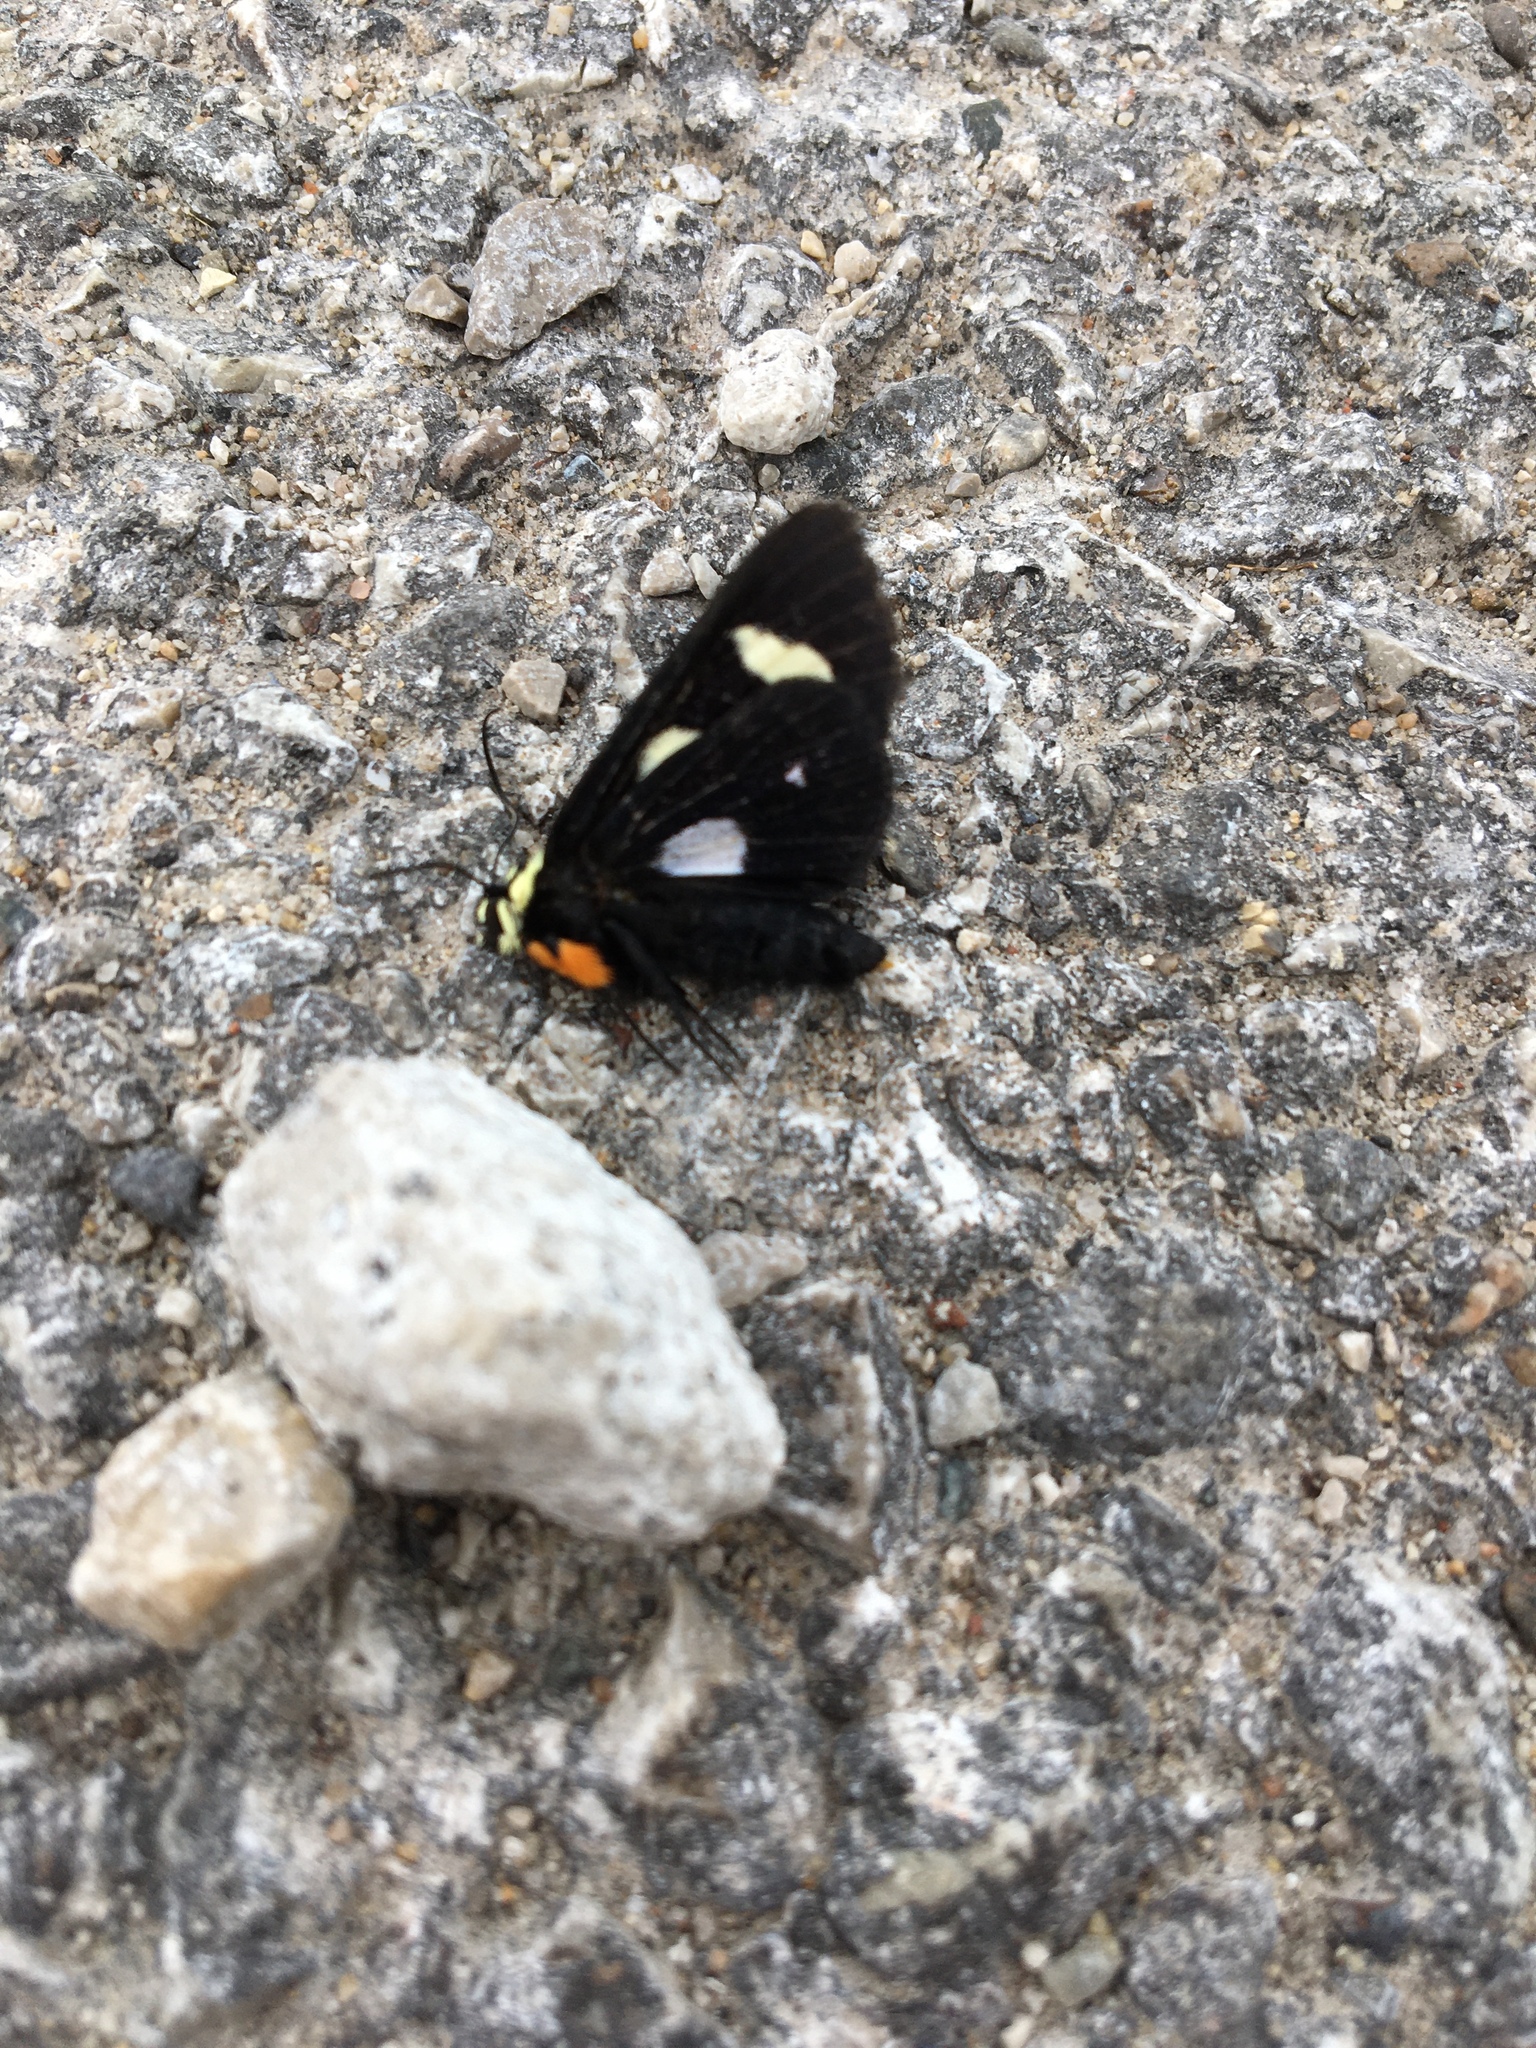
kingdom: Animalia
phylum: Arthropoda
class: Insecta
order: Lepidoptera
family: Noctuidae
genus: Alypia
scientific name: Alypia octomaculata
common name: Eight-spotted forester
